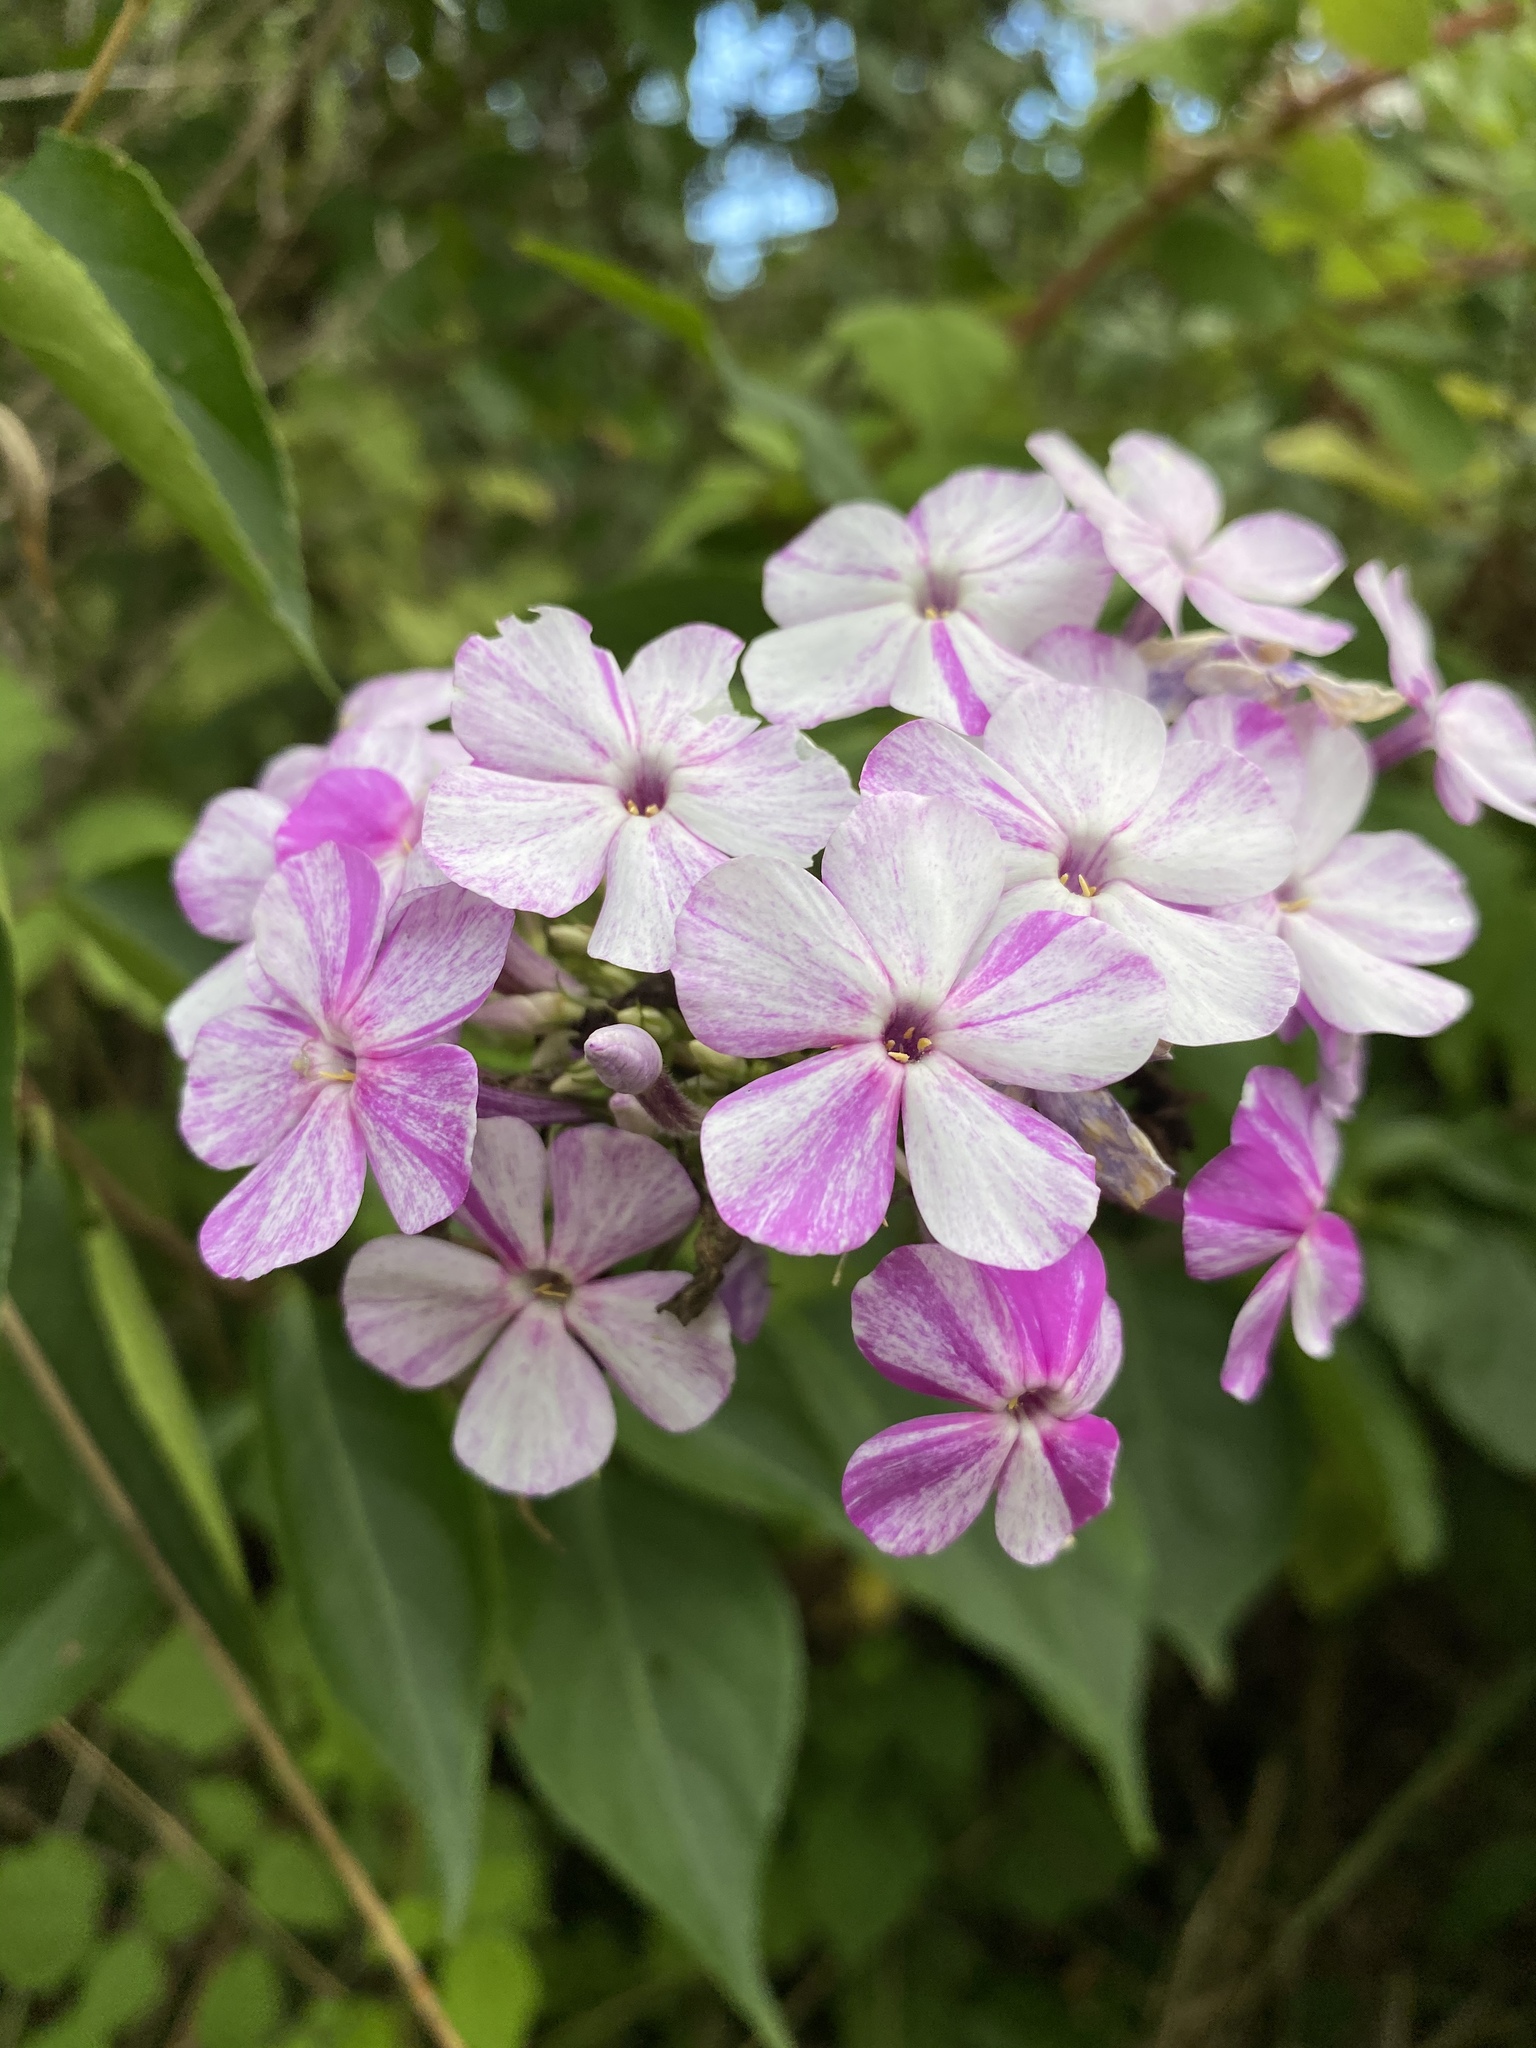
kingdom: Plantae
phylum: Tracheophyta
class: Magnoliopsida
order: Ericales
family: Polemoniaceae
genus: Phlox
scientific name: Phlox paniculata
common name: Fall phlox
